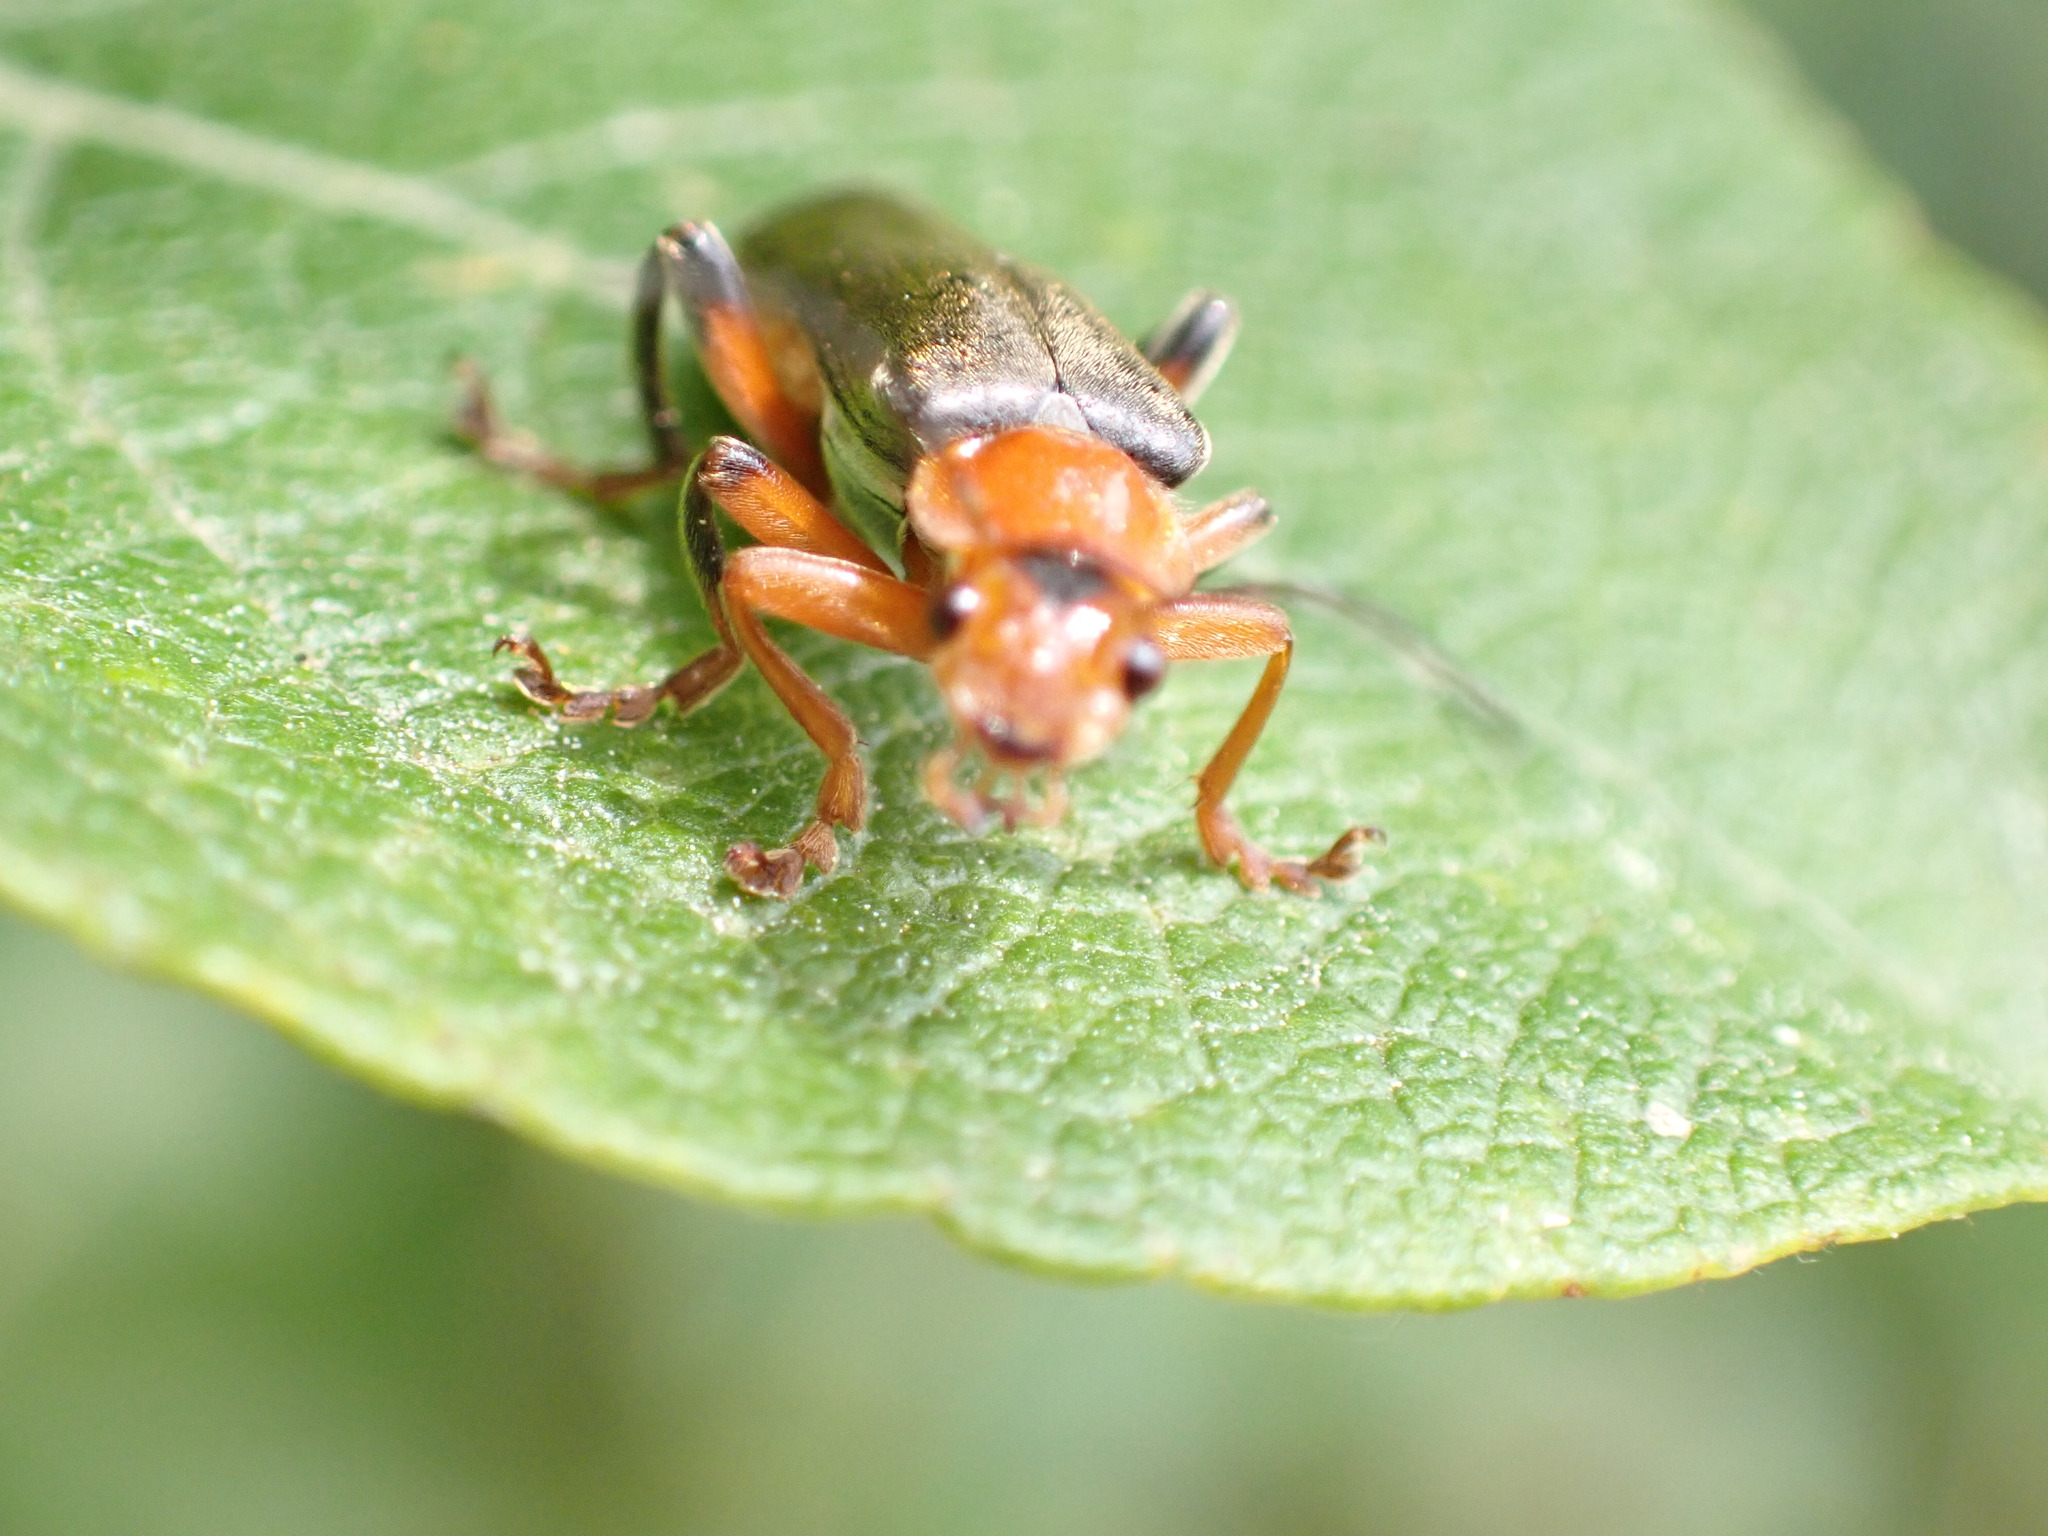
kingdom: Animalia
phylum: Arthropoda
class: Insecta
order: Coleoptera
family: Cantharidae
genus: Cantharis
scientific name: Cantharis livida
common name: Livid soldier beetle
